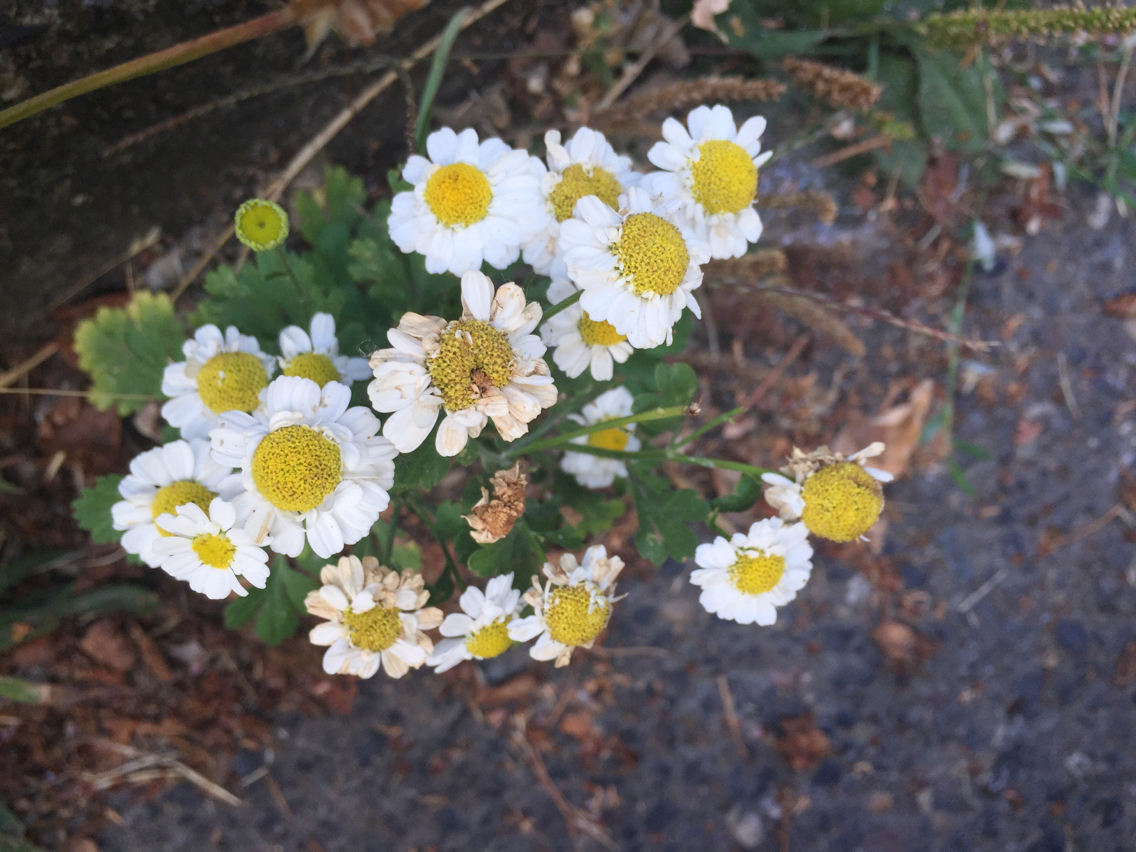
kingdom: Plantae
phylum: Tracheophyta
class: Magnoliopsida
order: Asterales
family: Asteraceae
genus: Tanacetum
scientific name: Tanacetum parthenium
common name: Feverfew
